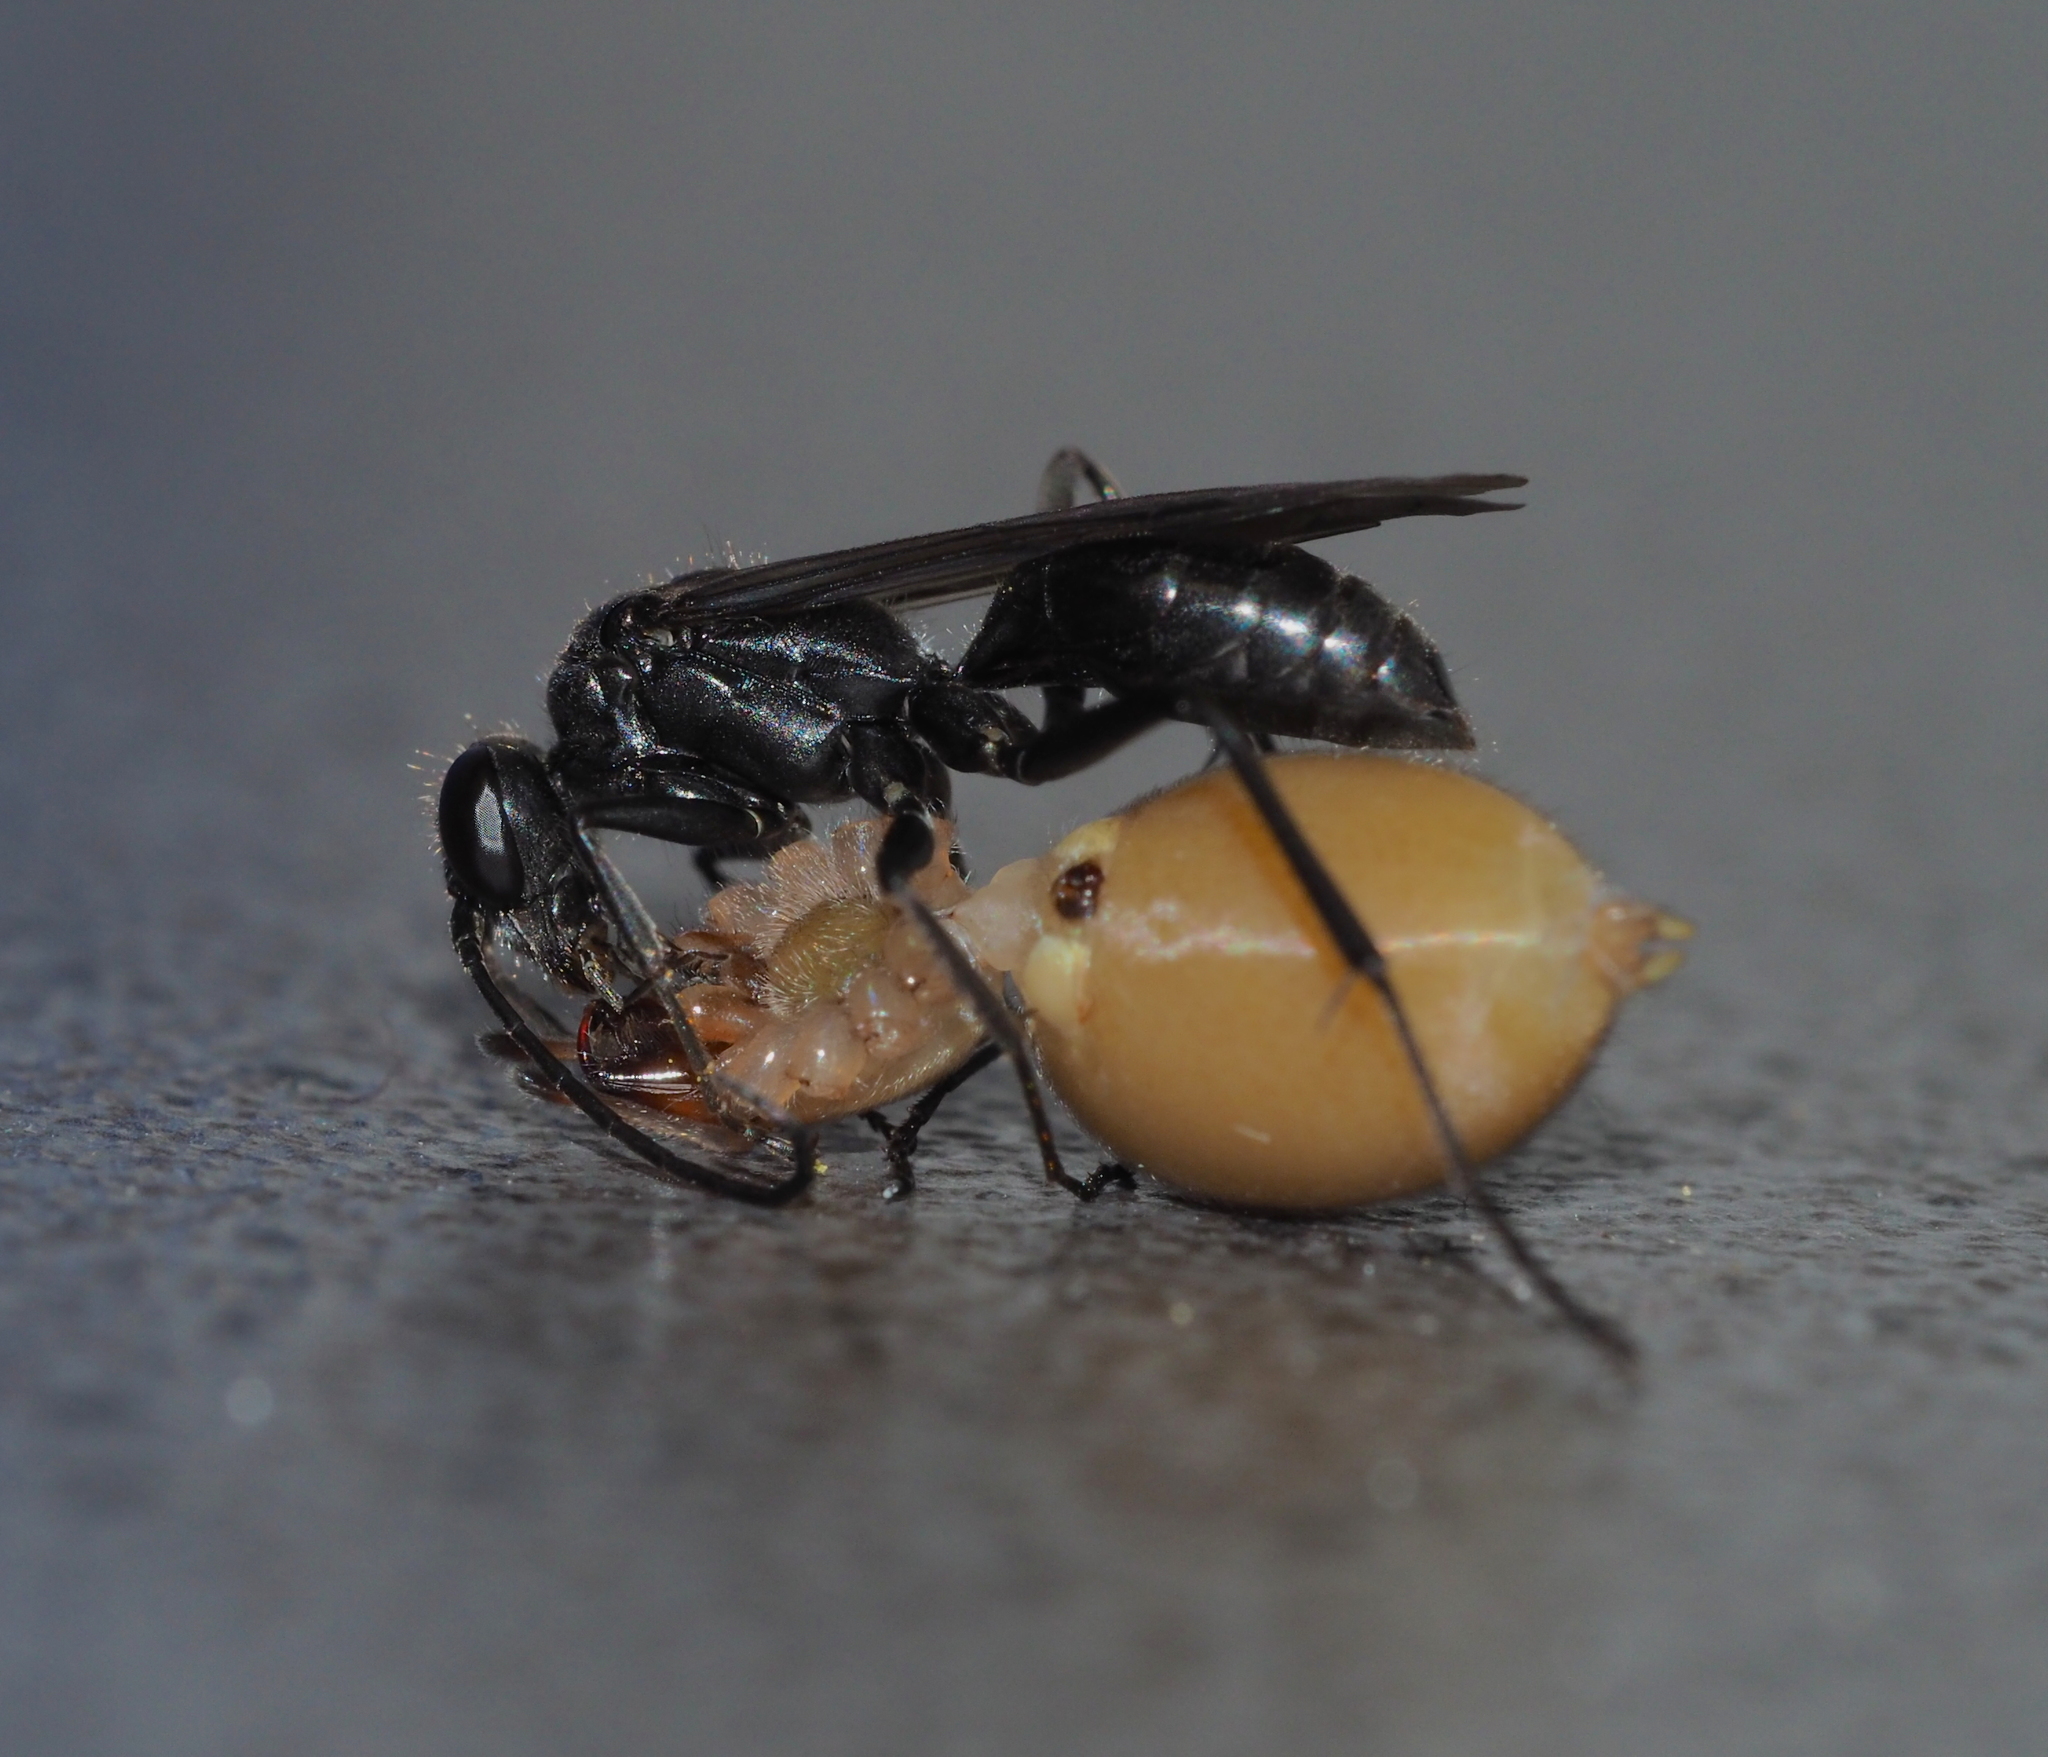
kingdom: Animalia
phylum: Arthropoda
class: Arachnida
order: Araneae
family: Cheiracanthiidae
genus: Cheiracanthium
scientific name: Cheiracanthium mildei
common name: Northern yellow sac spider
